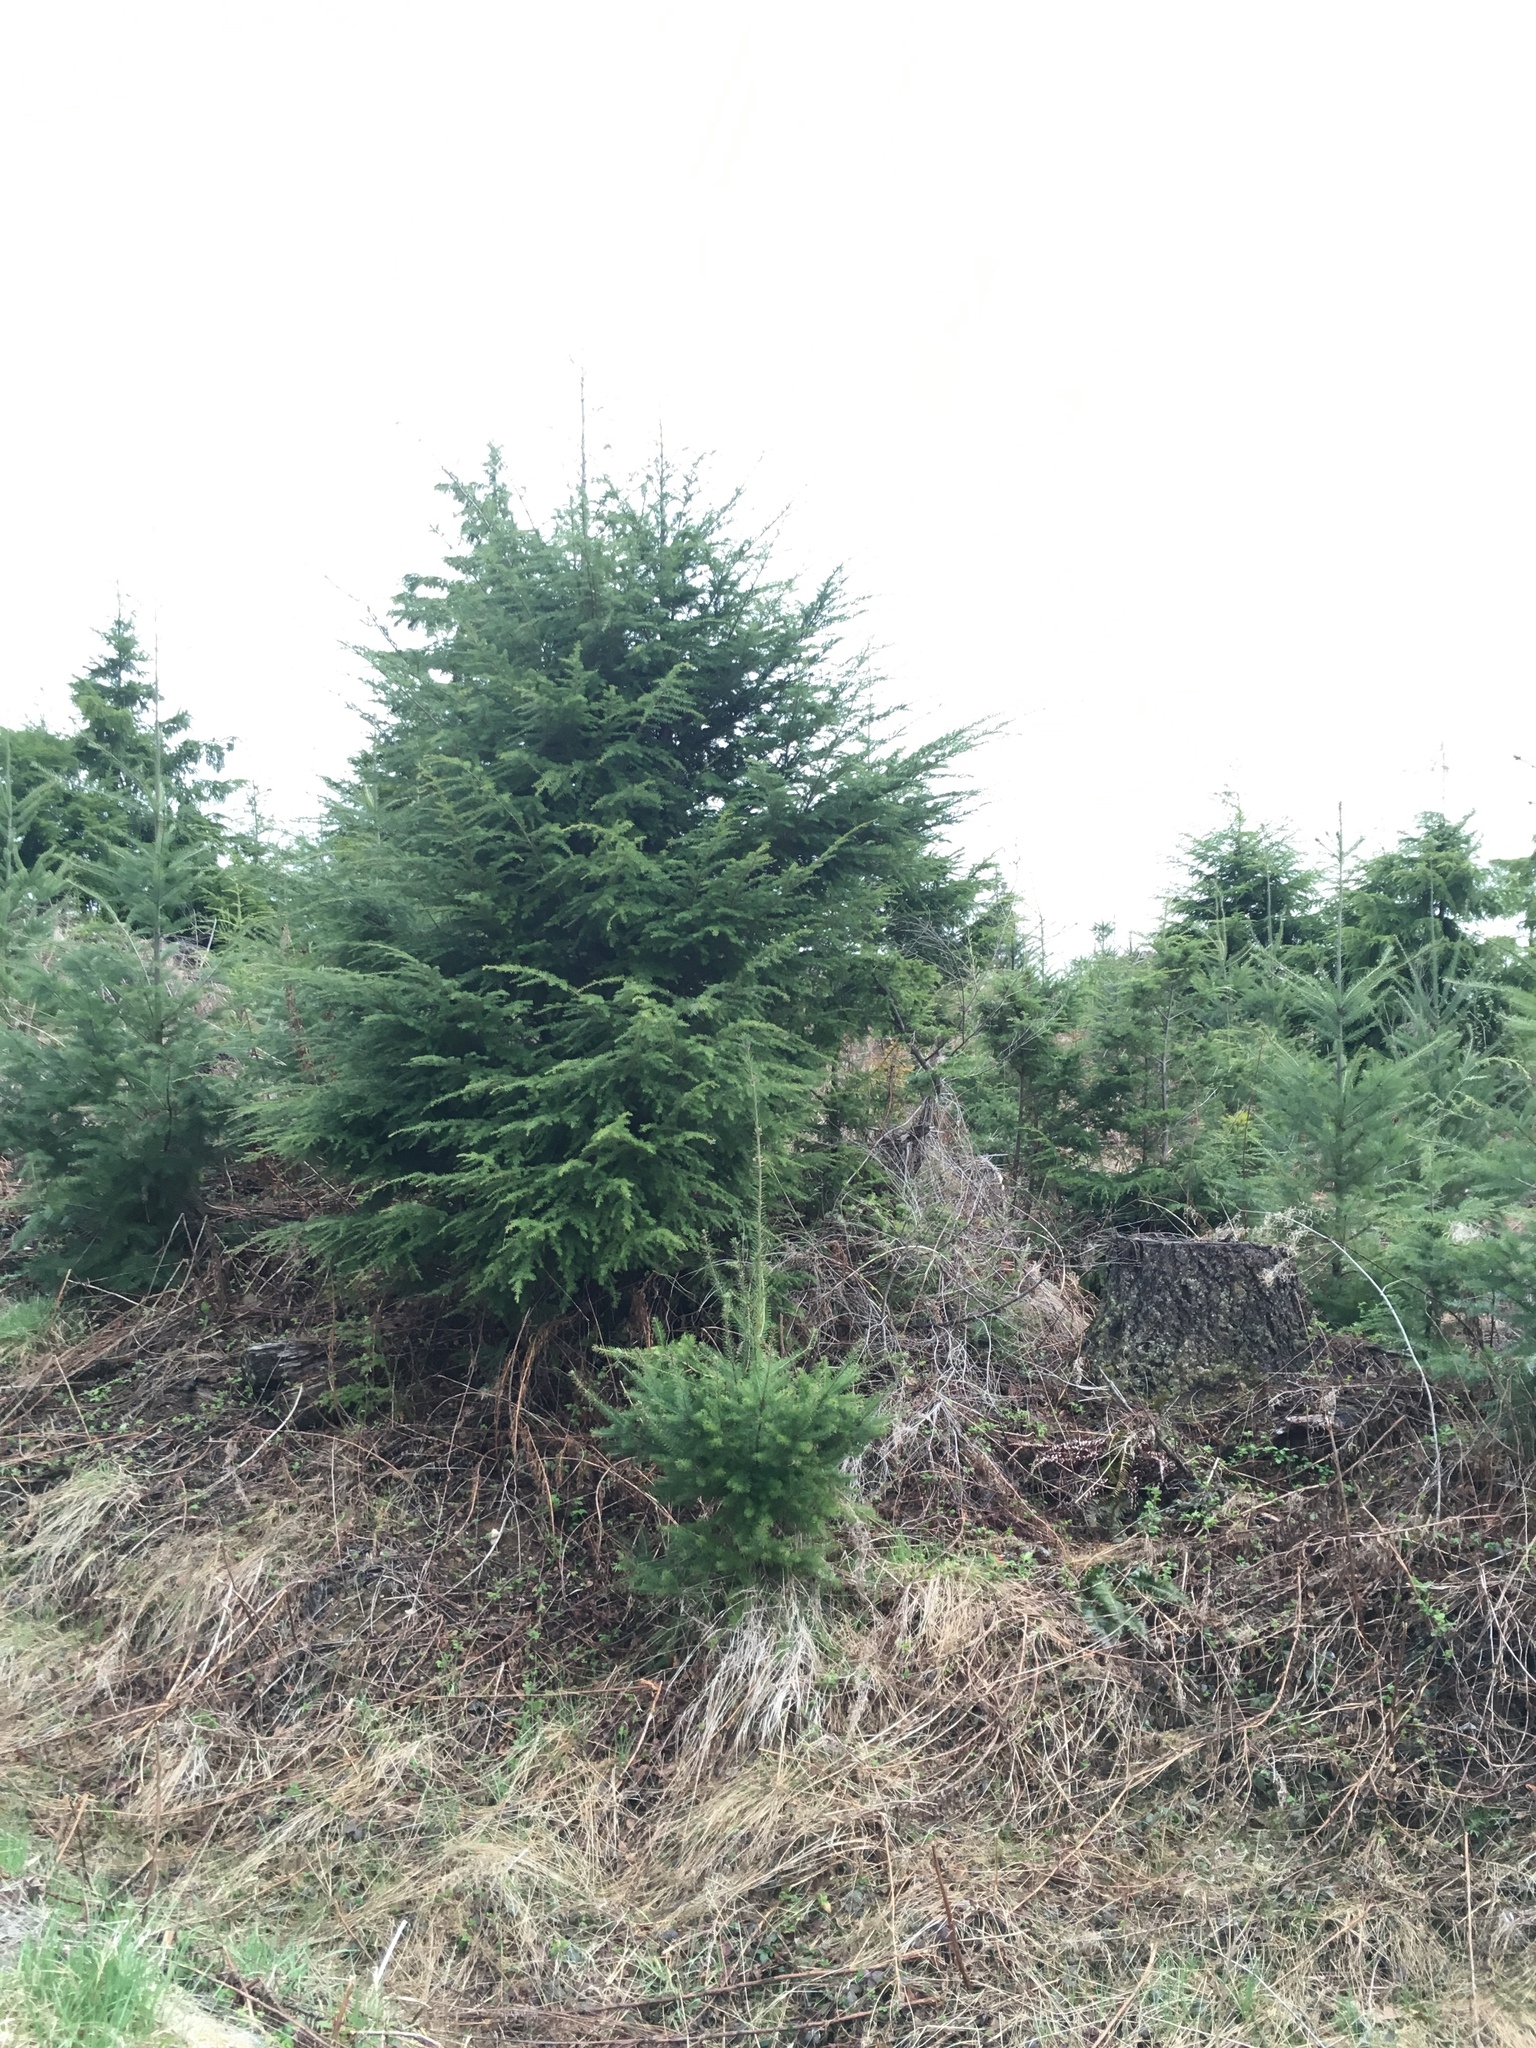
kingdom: Plantae
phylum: Tracheophyta
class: Pinopsida
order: Pinales
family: Pinaceae
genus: Tsuga
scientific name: Tsuga heterophylla
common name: Western hemlock
